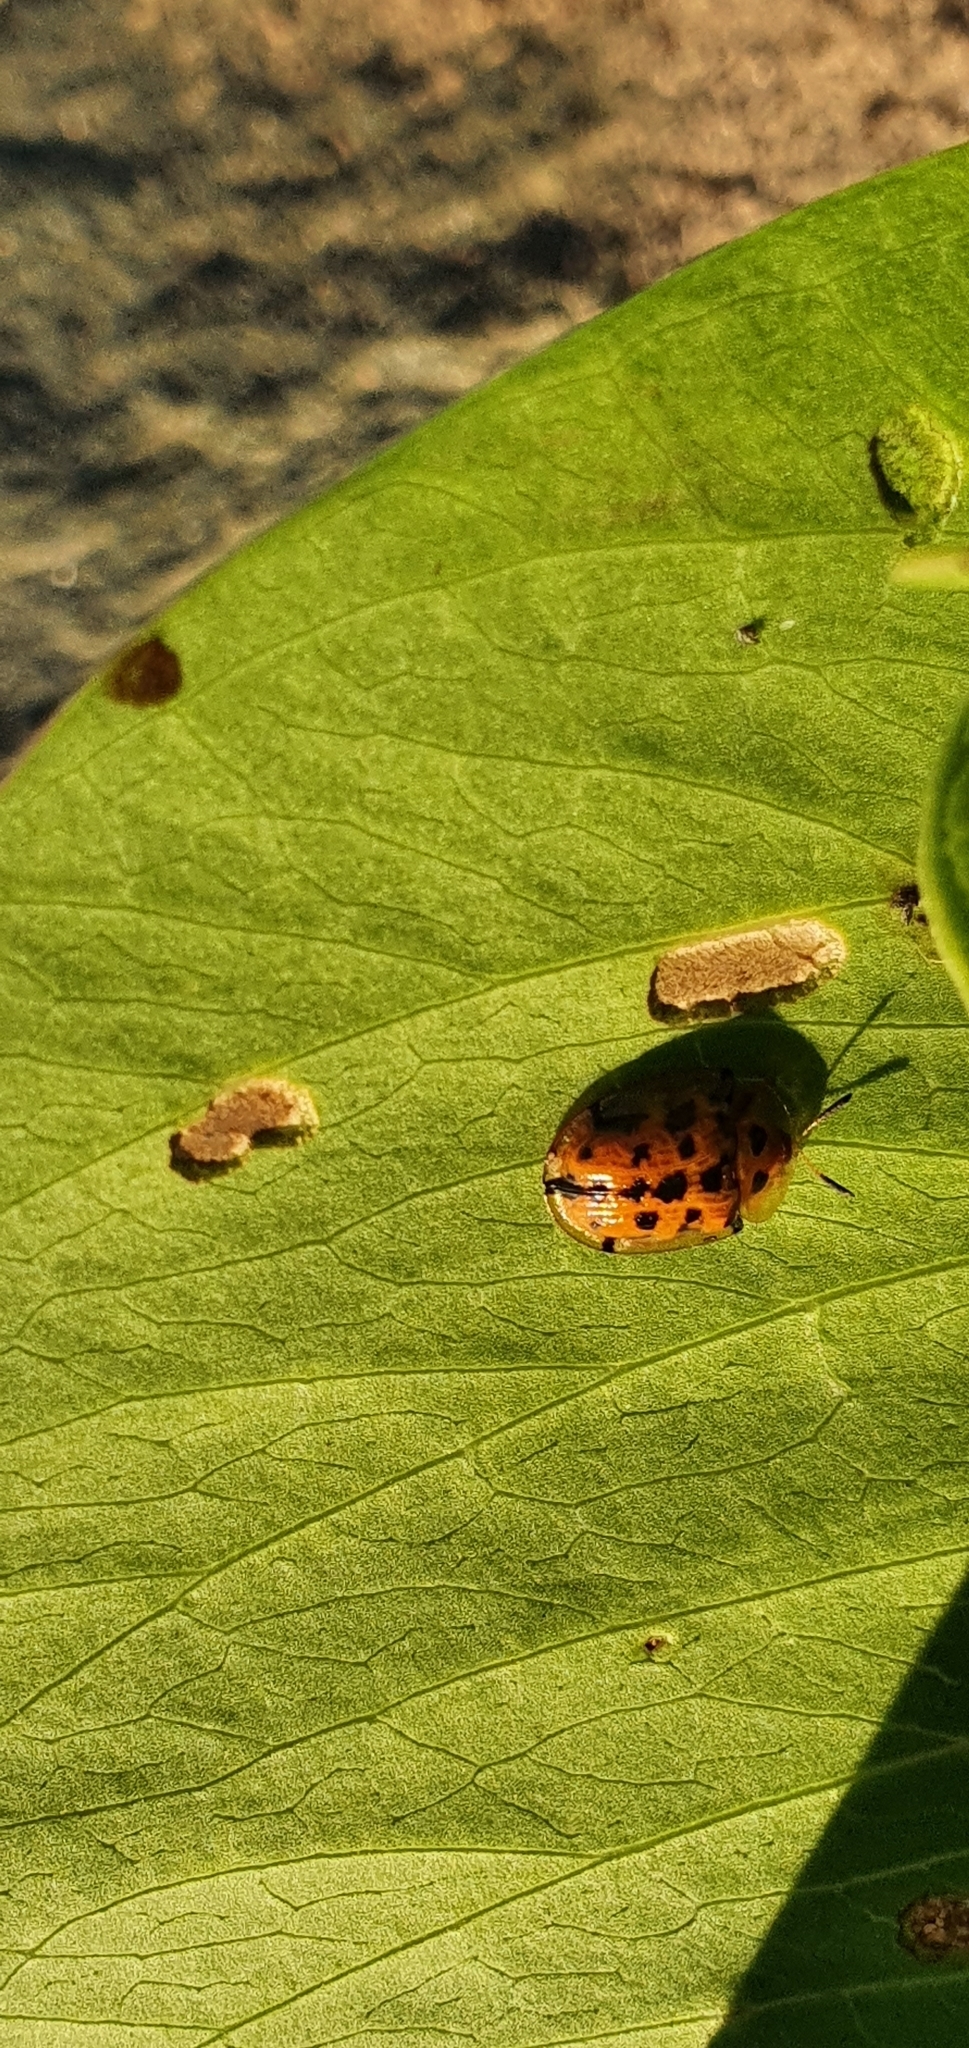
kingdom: Animalia
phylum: Arthropoda
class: Insecta
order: Coleoptera
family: Chrysomelidae
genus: Aspidimorpha
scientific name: Aspidimorpha deusta
